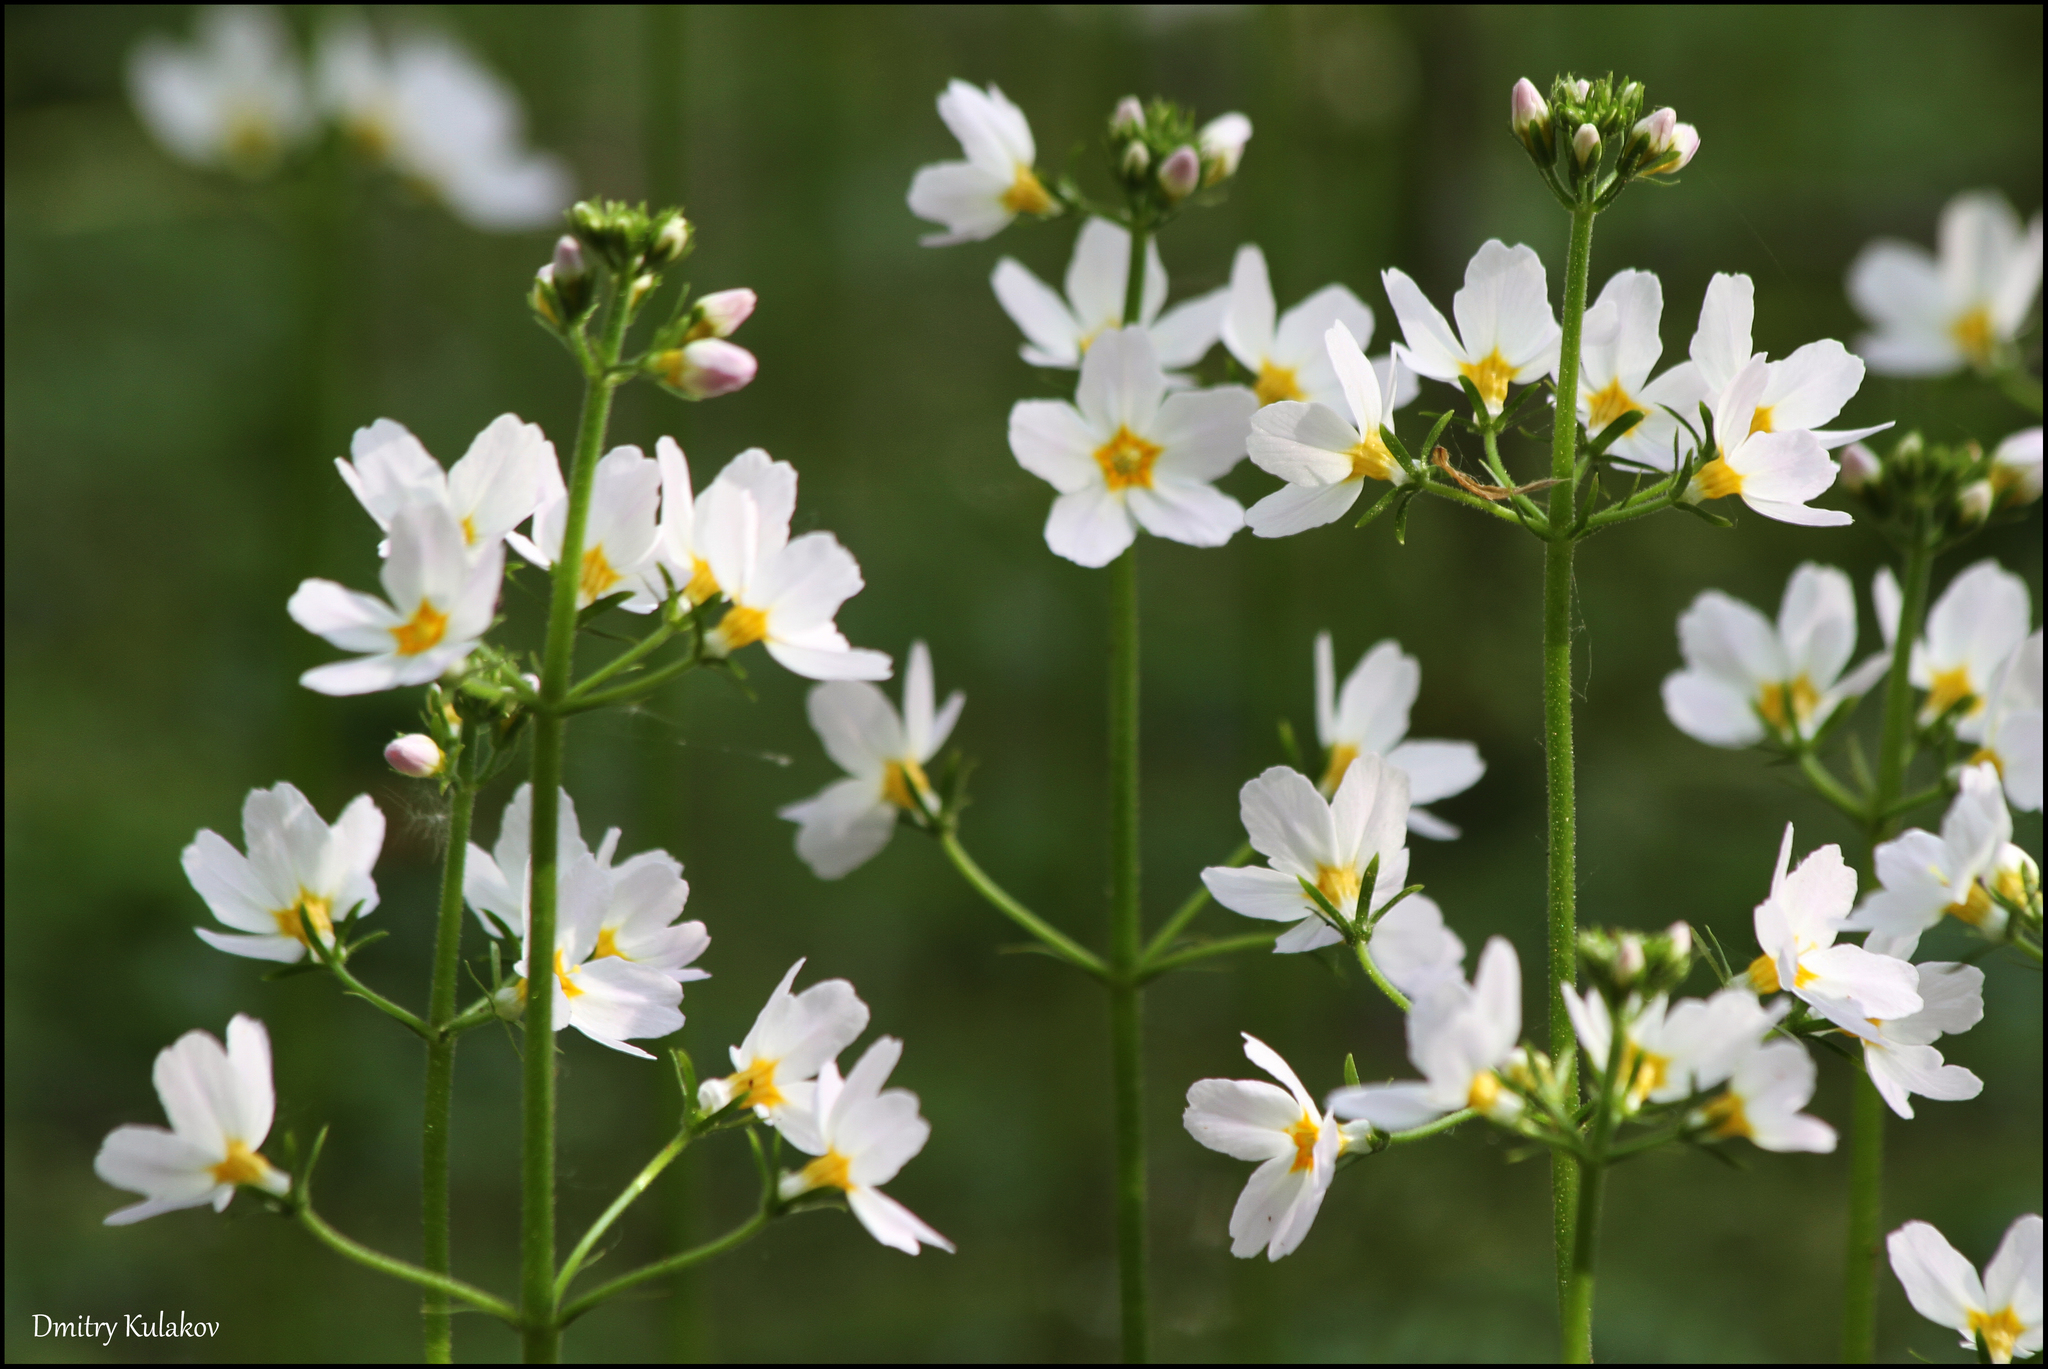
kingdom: Plantae
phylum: Tracheophyta
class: Magnoliopsida
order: Ericales
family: Primulaceae
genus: Hottonia
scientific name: Hottonia palustris
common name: Water-violet
